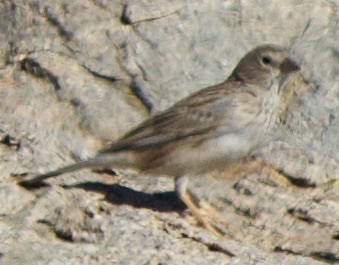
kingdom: Animalia
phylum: Chordata
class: Aves
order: Passeriformes
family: Thraupidae
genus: Porphyrospiza
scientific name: Porphyrospiza alaudina
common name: Band-tailed sierra finch
